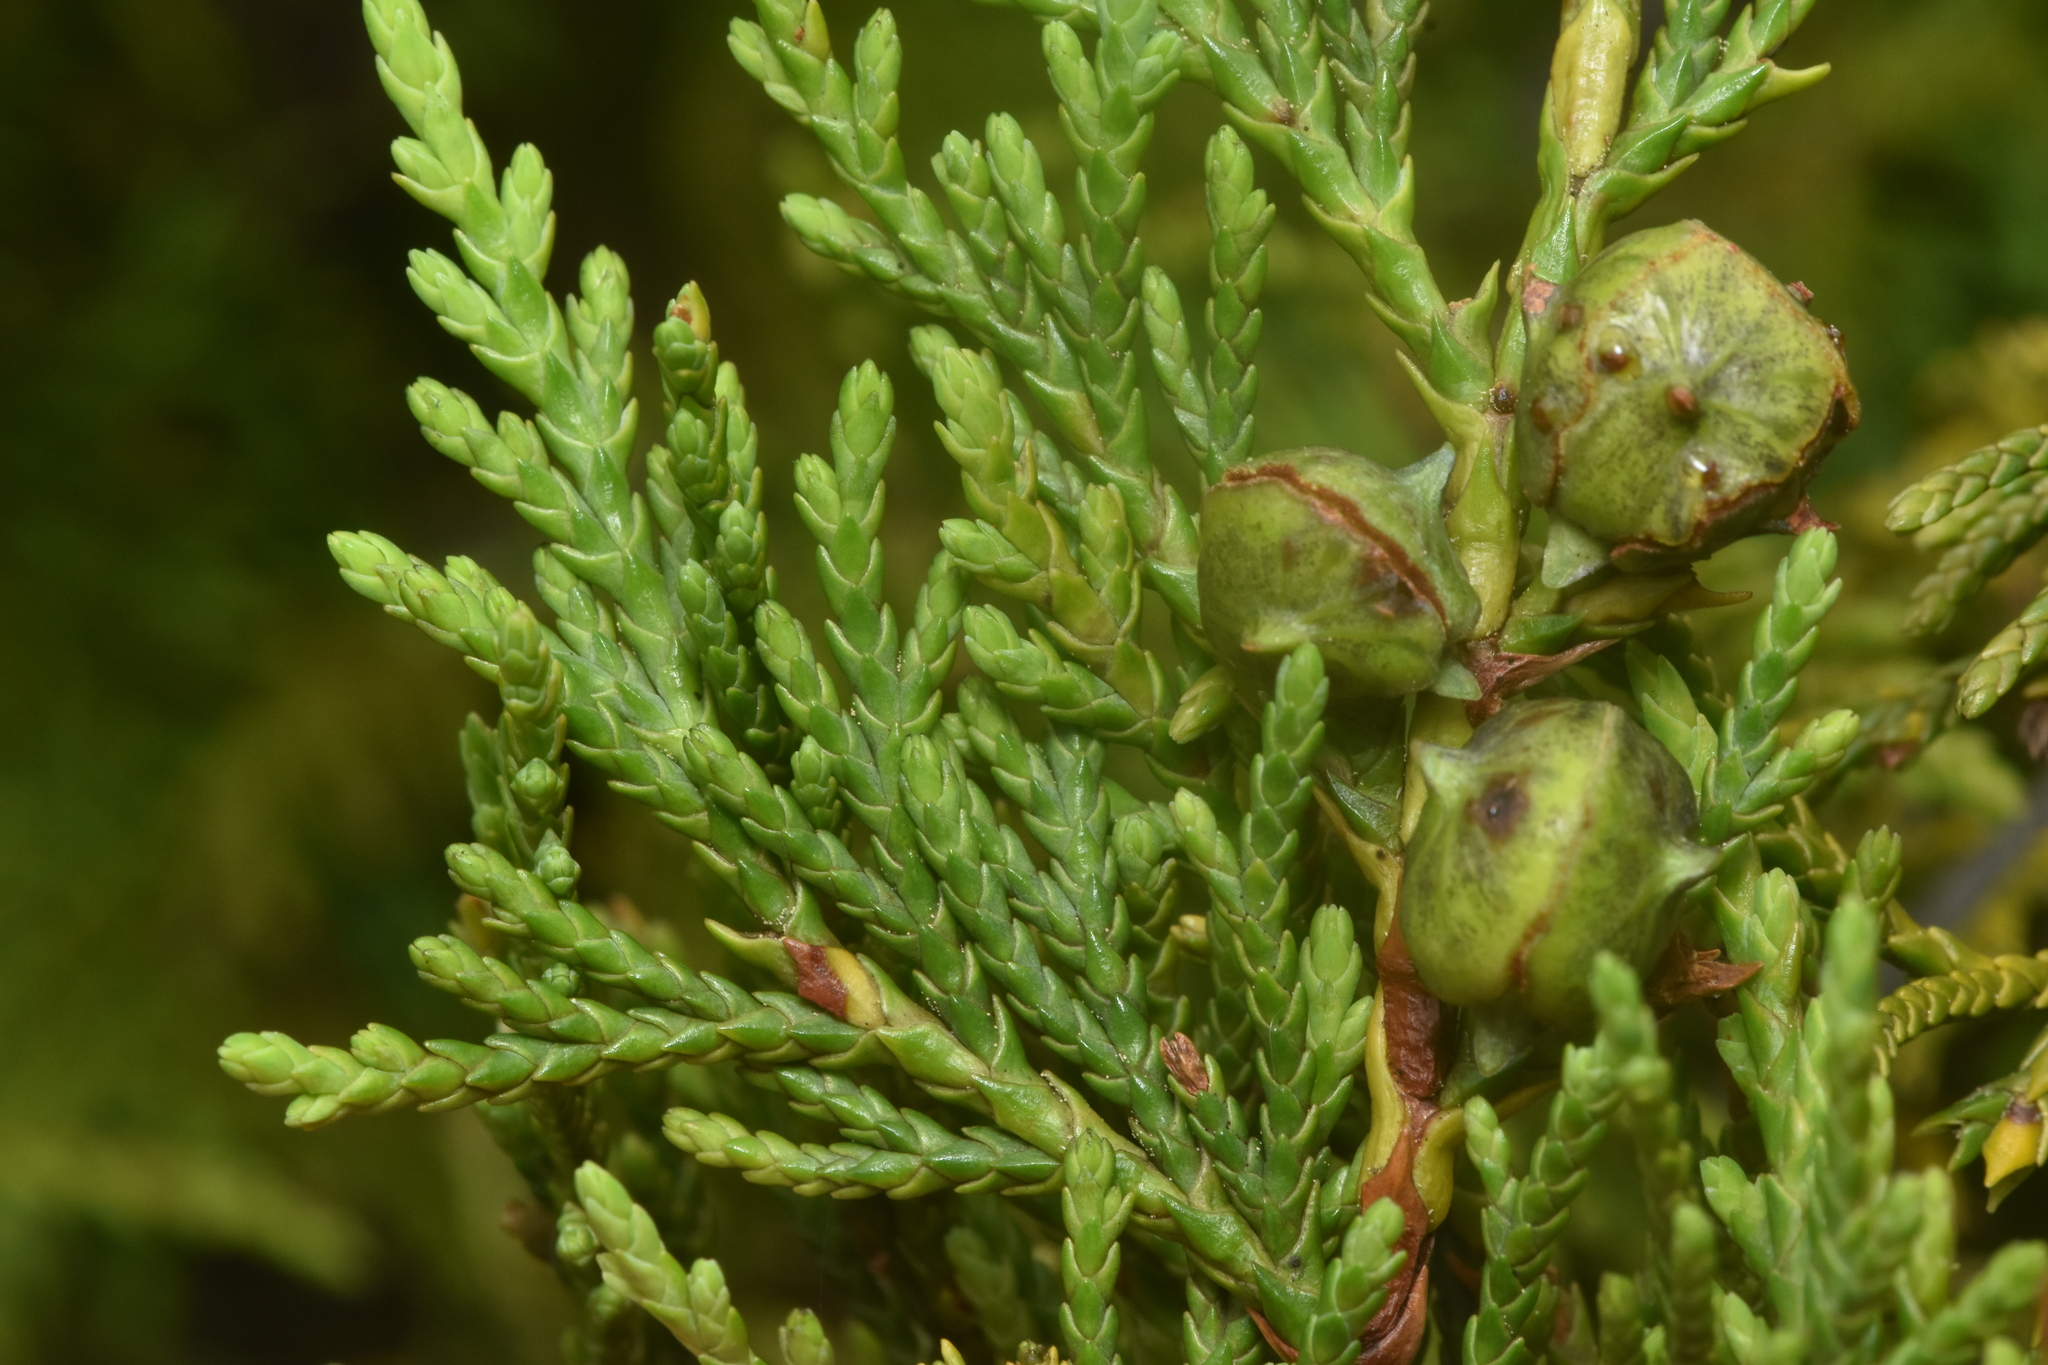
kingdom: Plantae
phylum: Tracheophyta
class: Pinopsida
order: Pinales
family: Cupressaceae
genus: Xanthocyparis
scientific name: Xanthocyparis nootkatensis
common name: Nootka cypress
